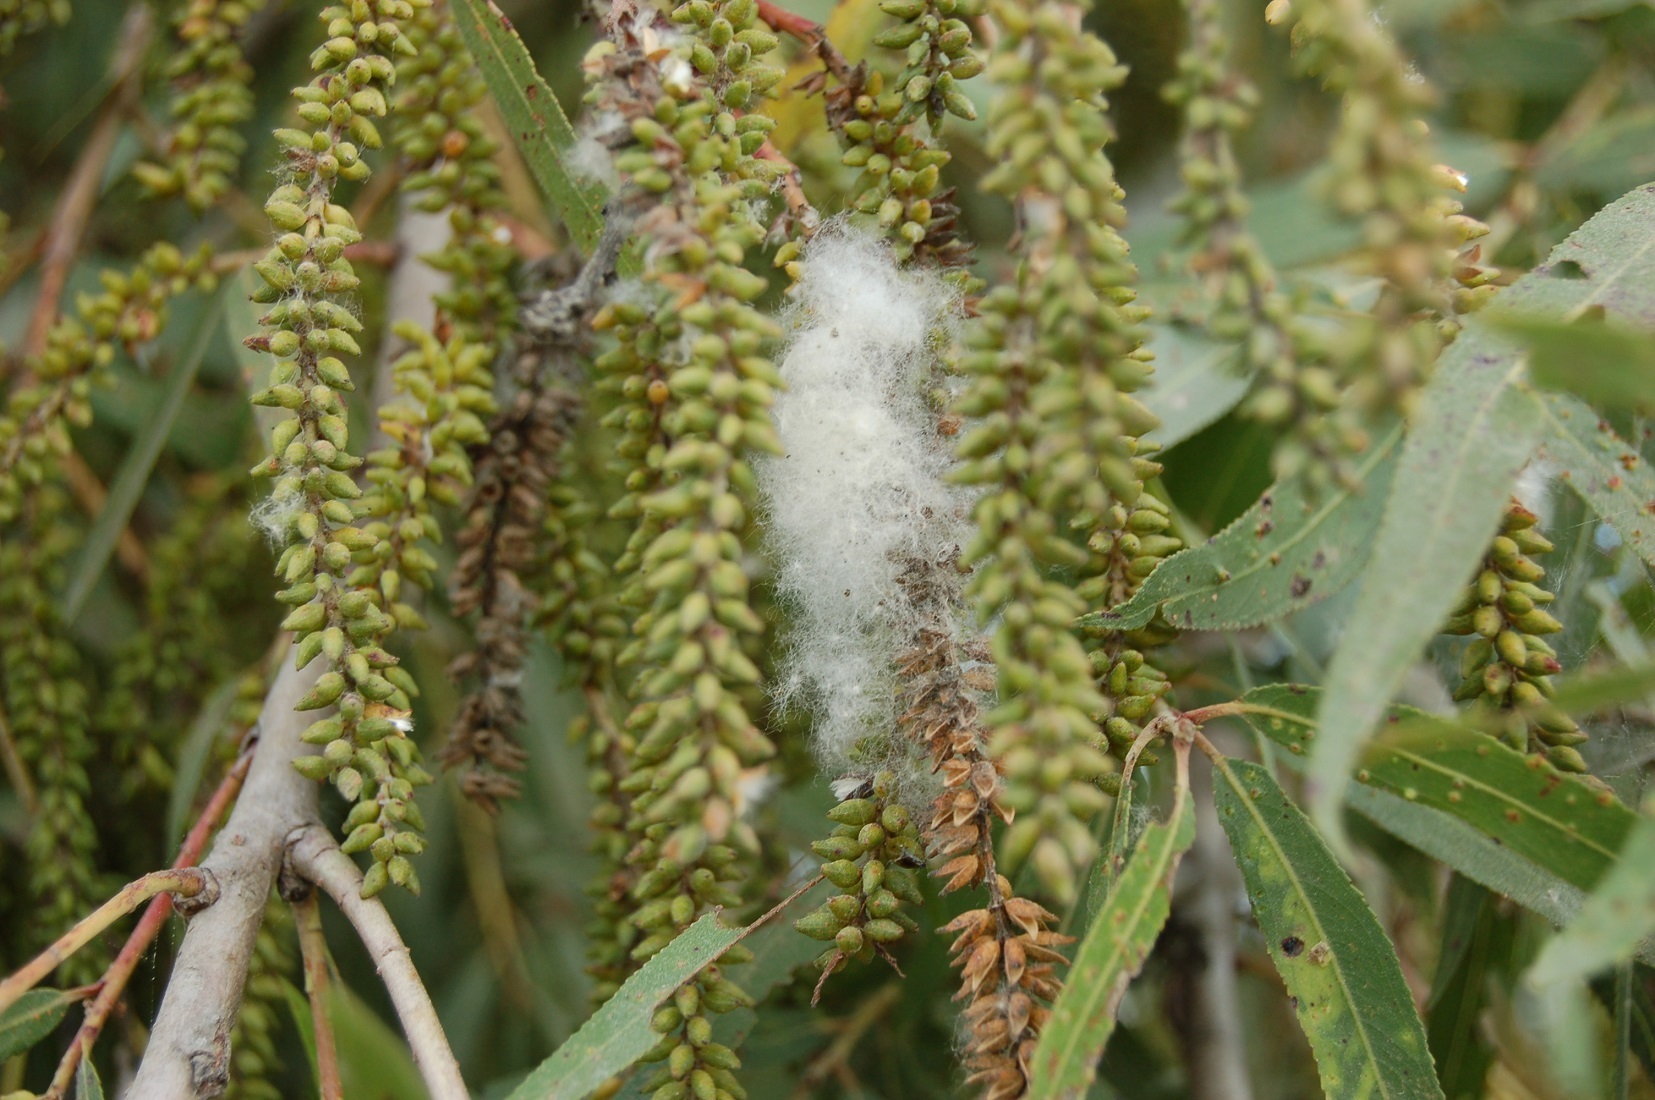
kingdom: Plantae
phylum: Tracheophyta
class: Magnoliopsida
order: Malpighiales
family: Salicaceae
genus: Salix
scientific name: Salix bonplandiana
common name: Bonpland’s willow
